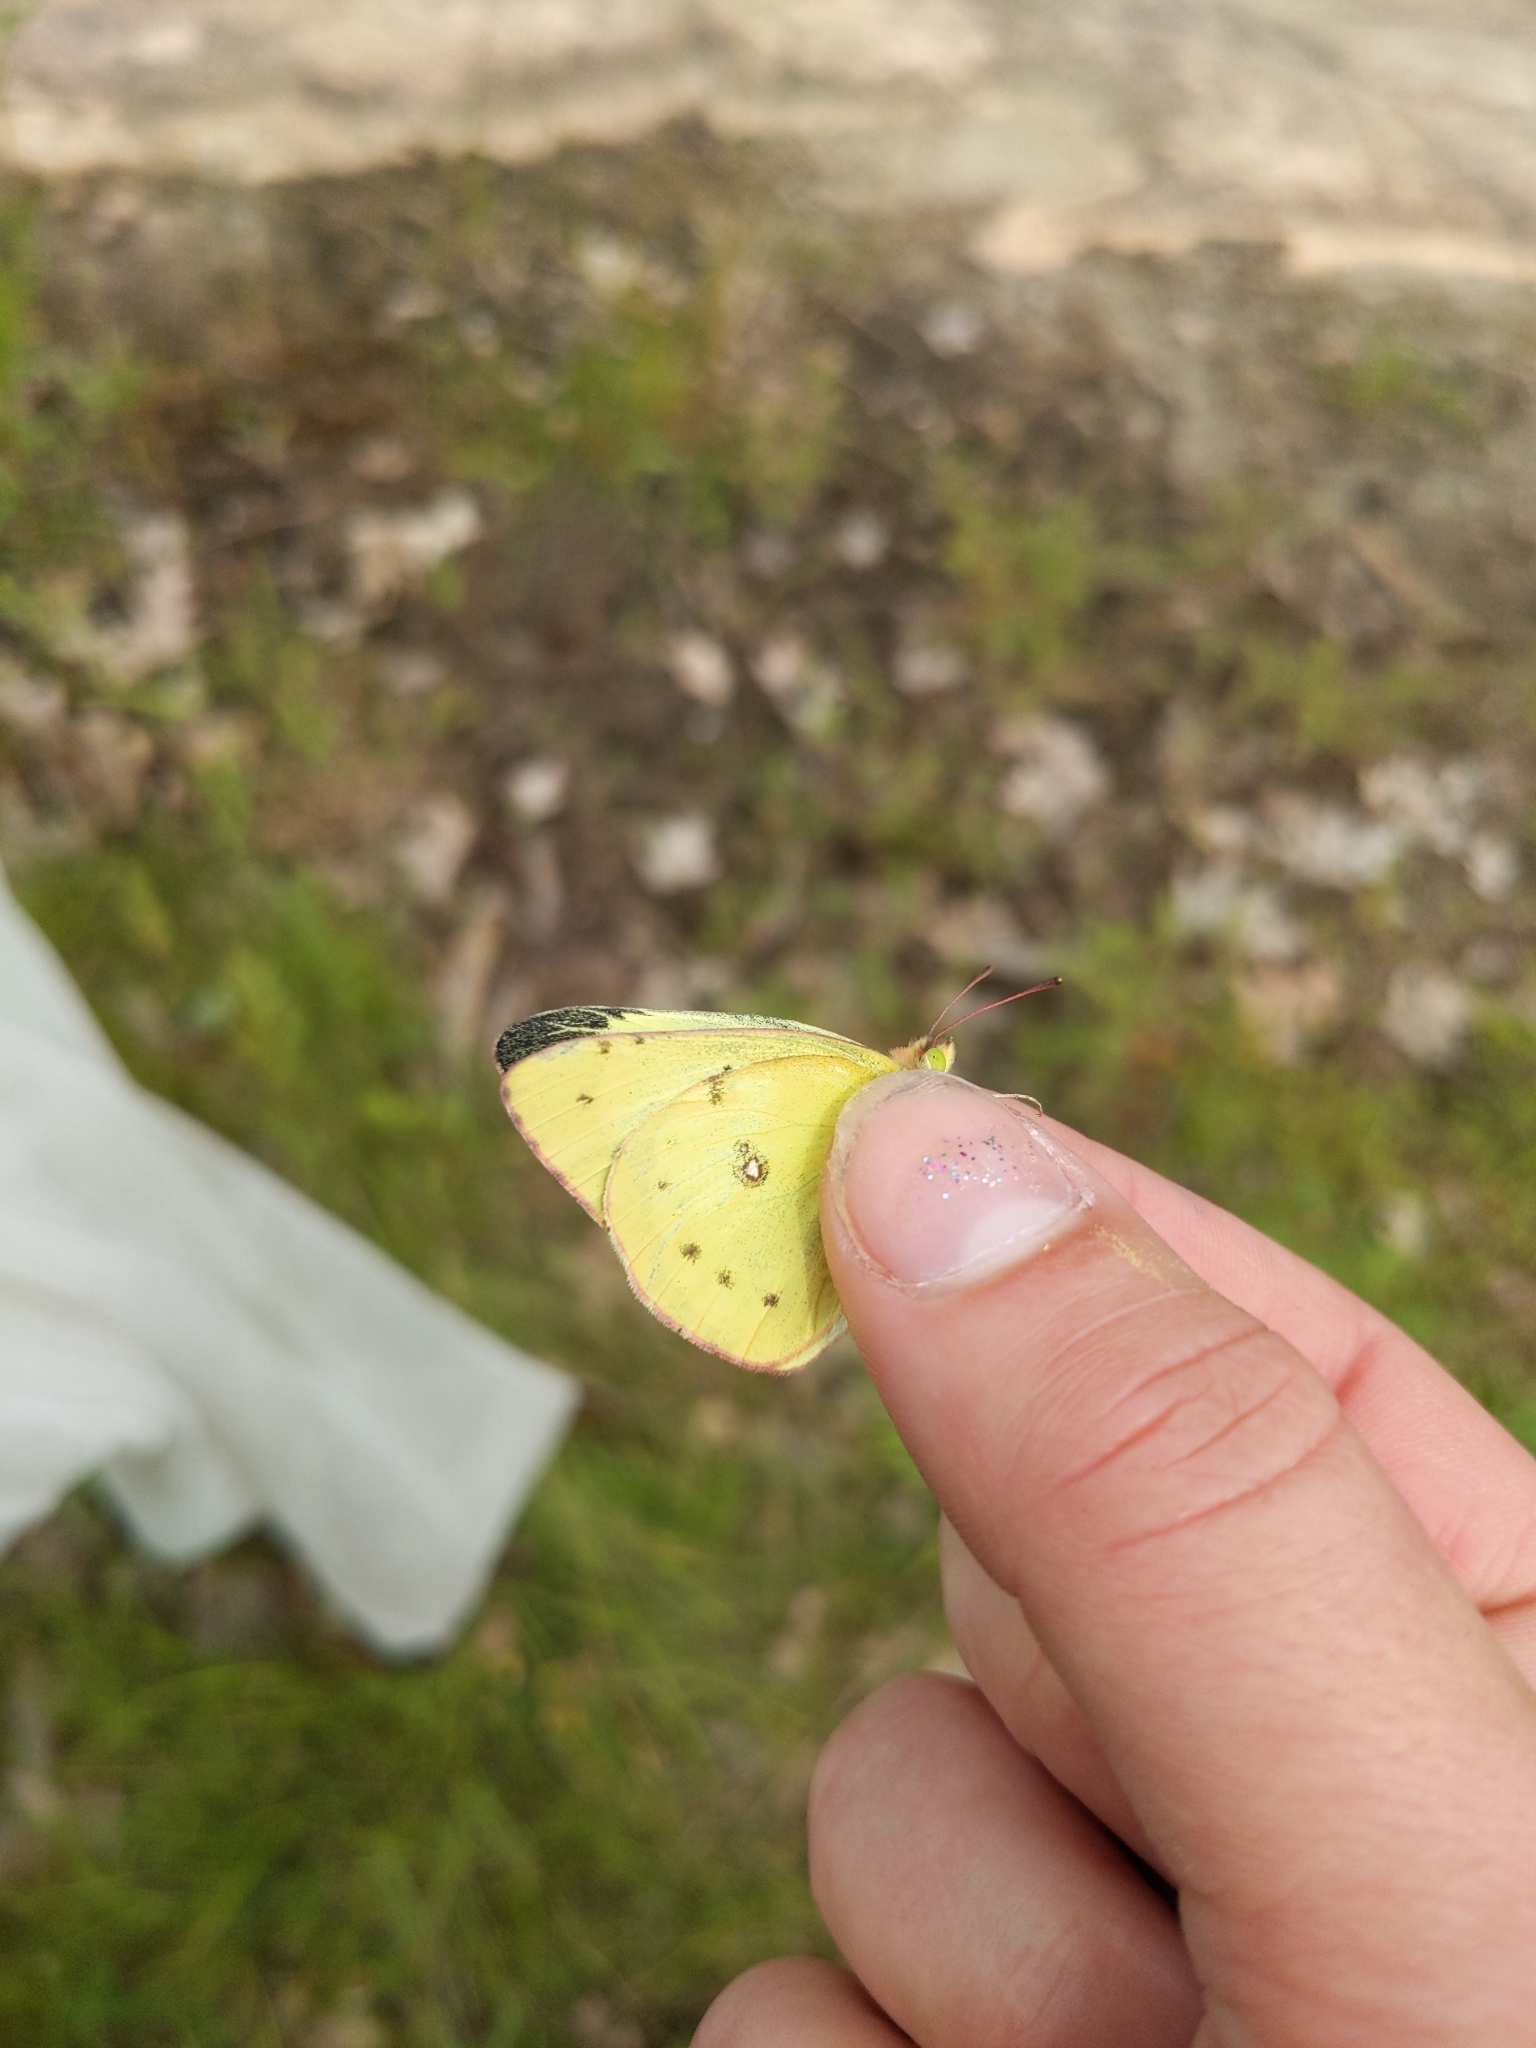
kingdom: Animalia
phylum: Arthropoda
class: Insecta
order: Lepidoptera
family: Pieridae
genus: Colias
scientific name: Colias philodice
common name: Clouded sulphur
